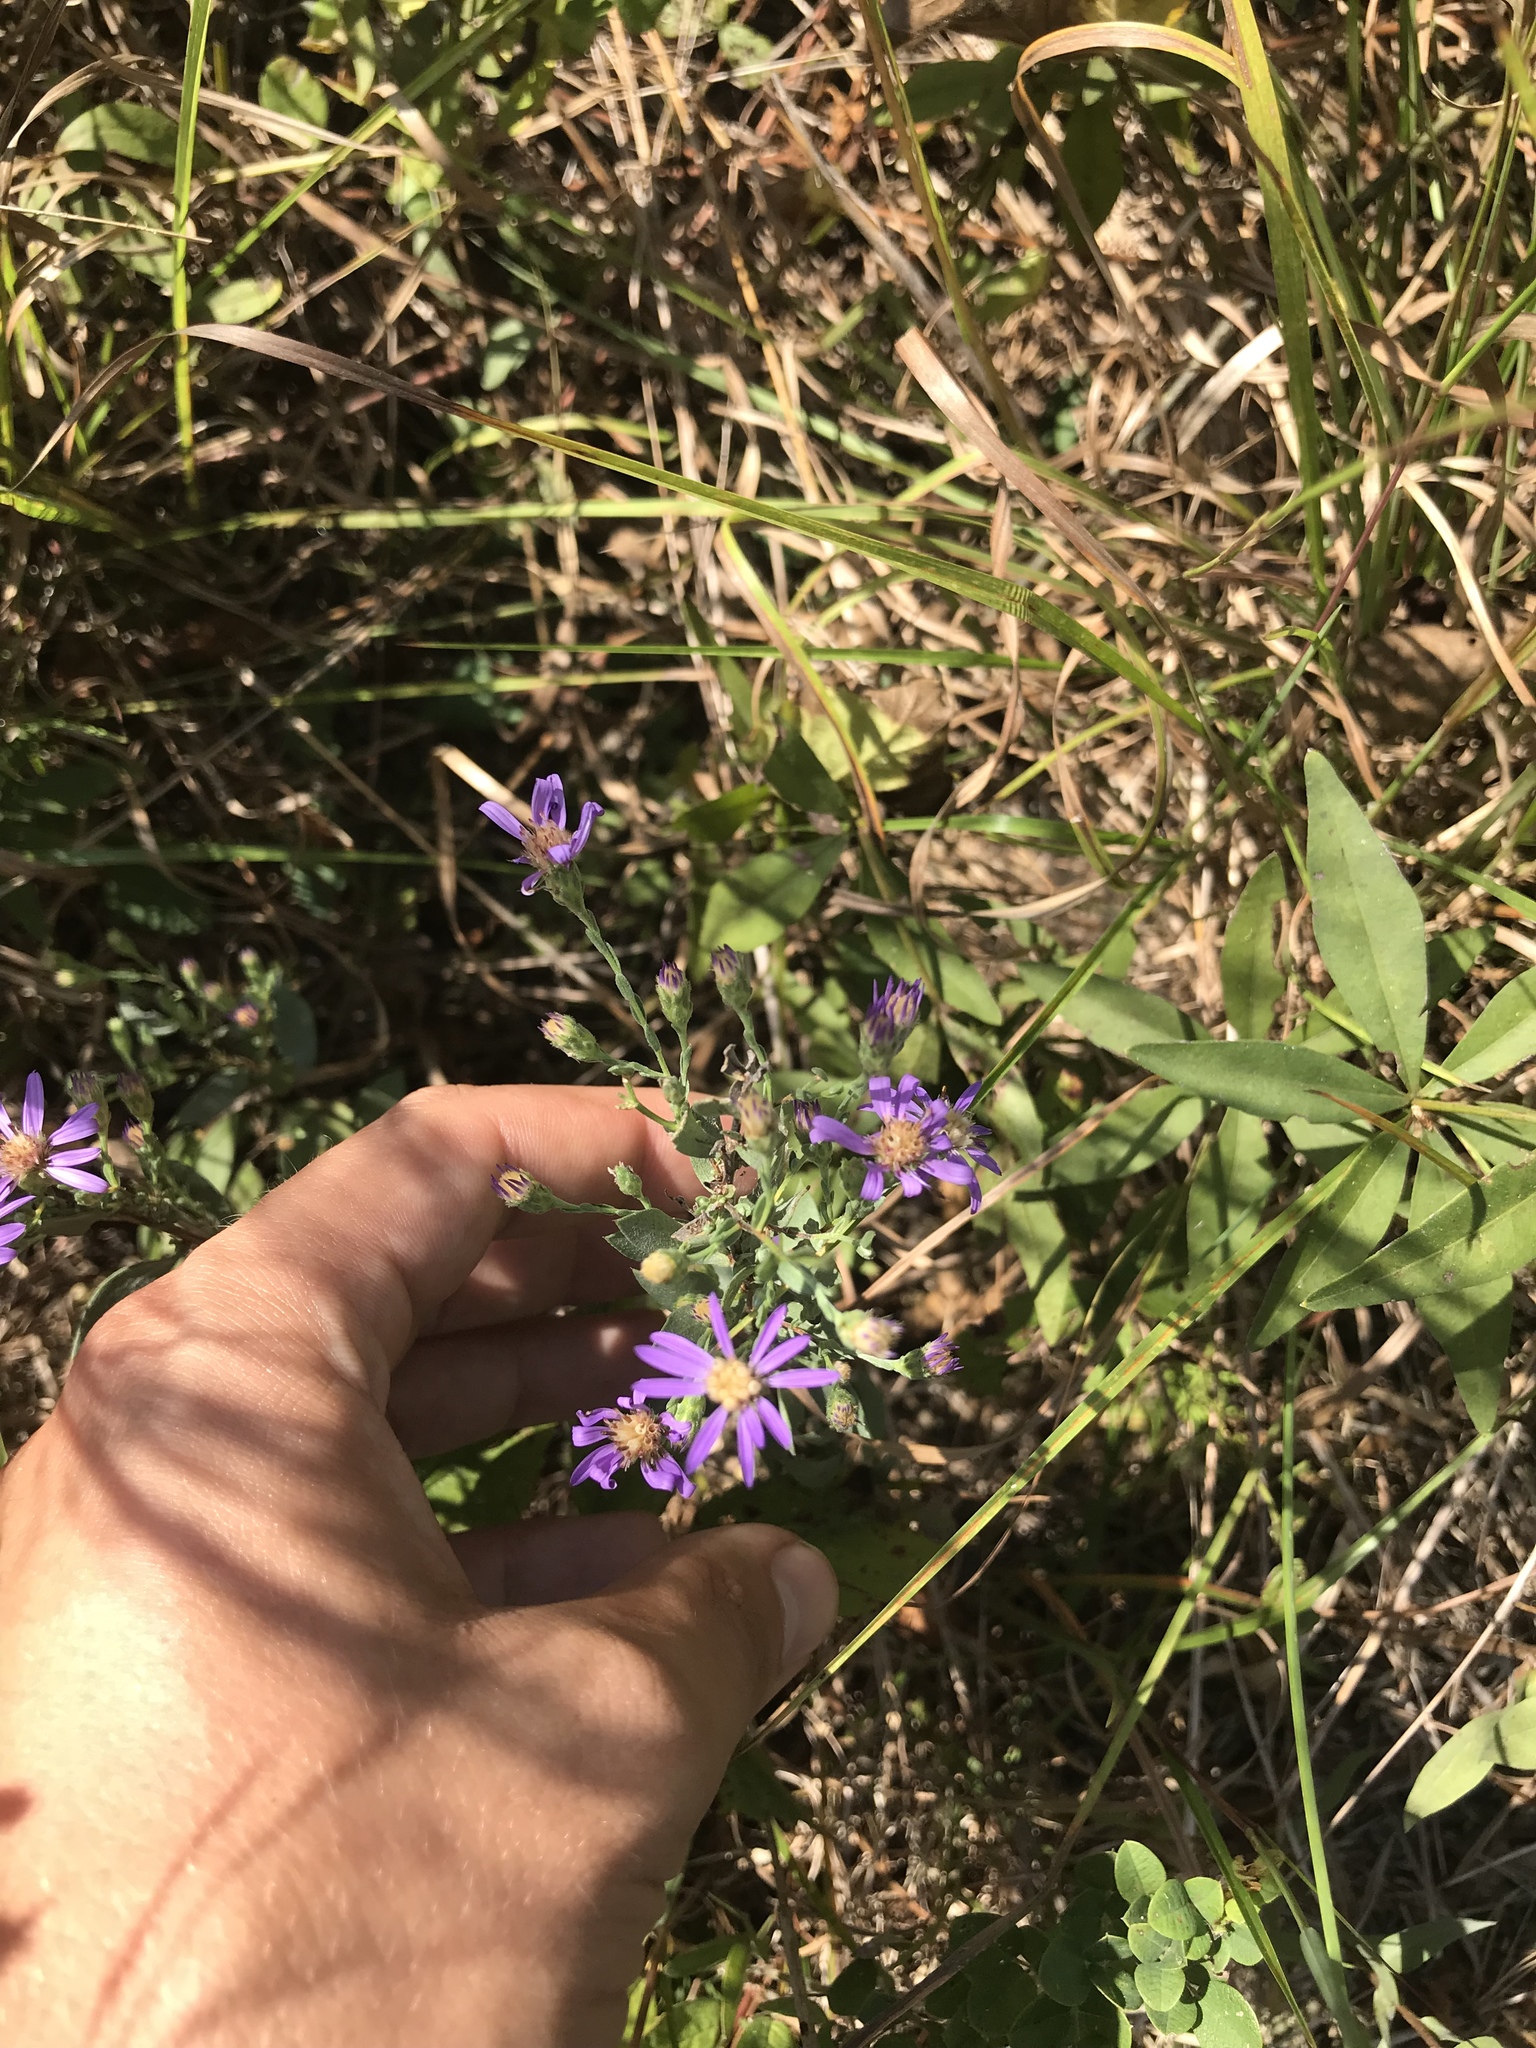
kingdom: Plantae
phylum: Tracheophyta
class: Magnoliopsida
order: Asterales
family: Asteraceae
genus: Symphyotrichum
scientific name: Symphyotrichum concolor
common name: Eastern silver aster
